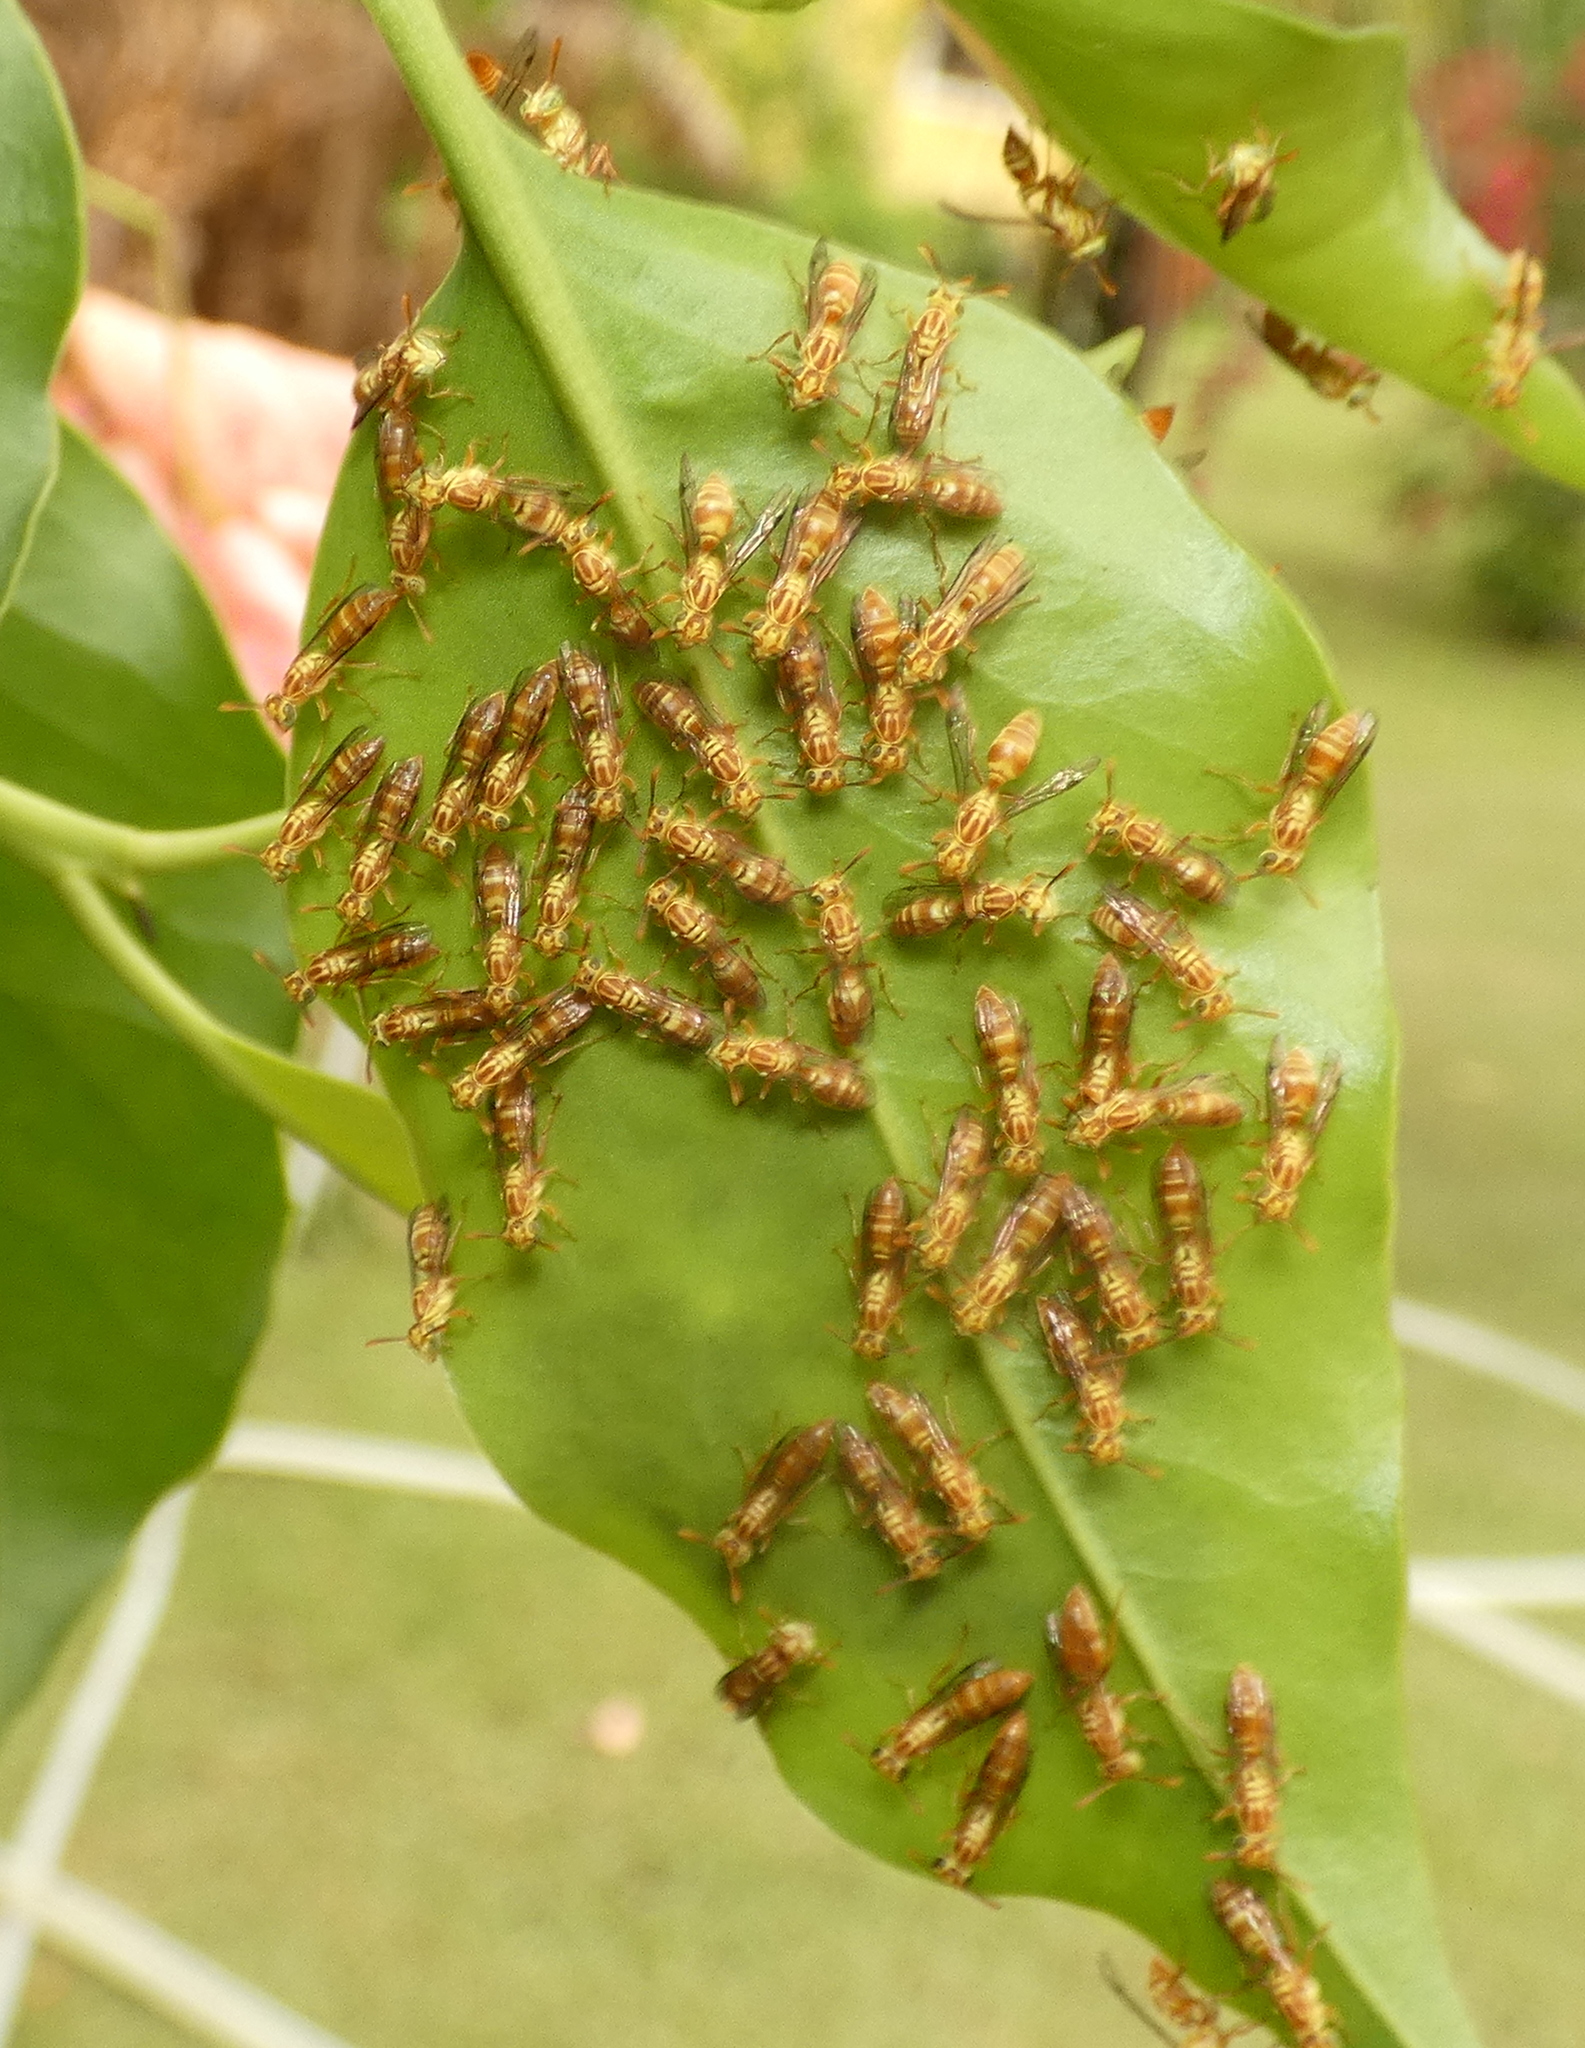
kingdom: Animalia
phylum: Arthropoda
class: Insecta
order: Hymenoptera
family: Vespidae
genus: Protopolybia
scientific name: Protopolybia potiguara
